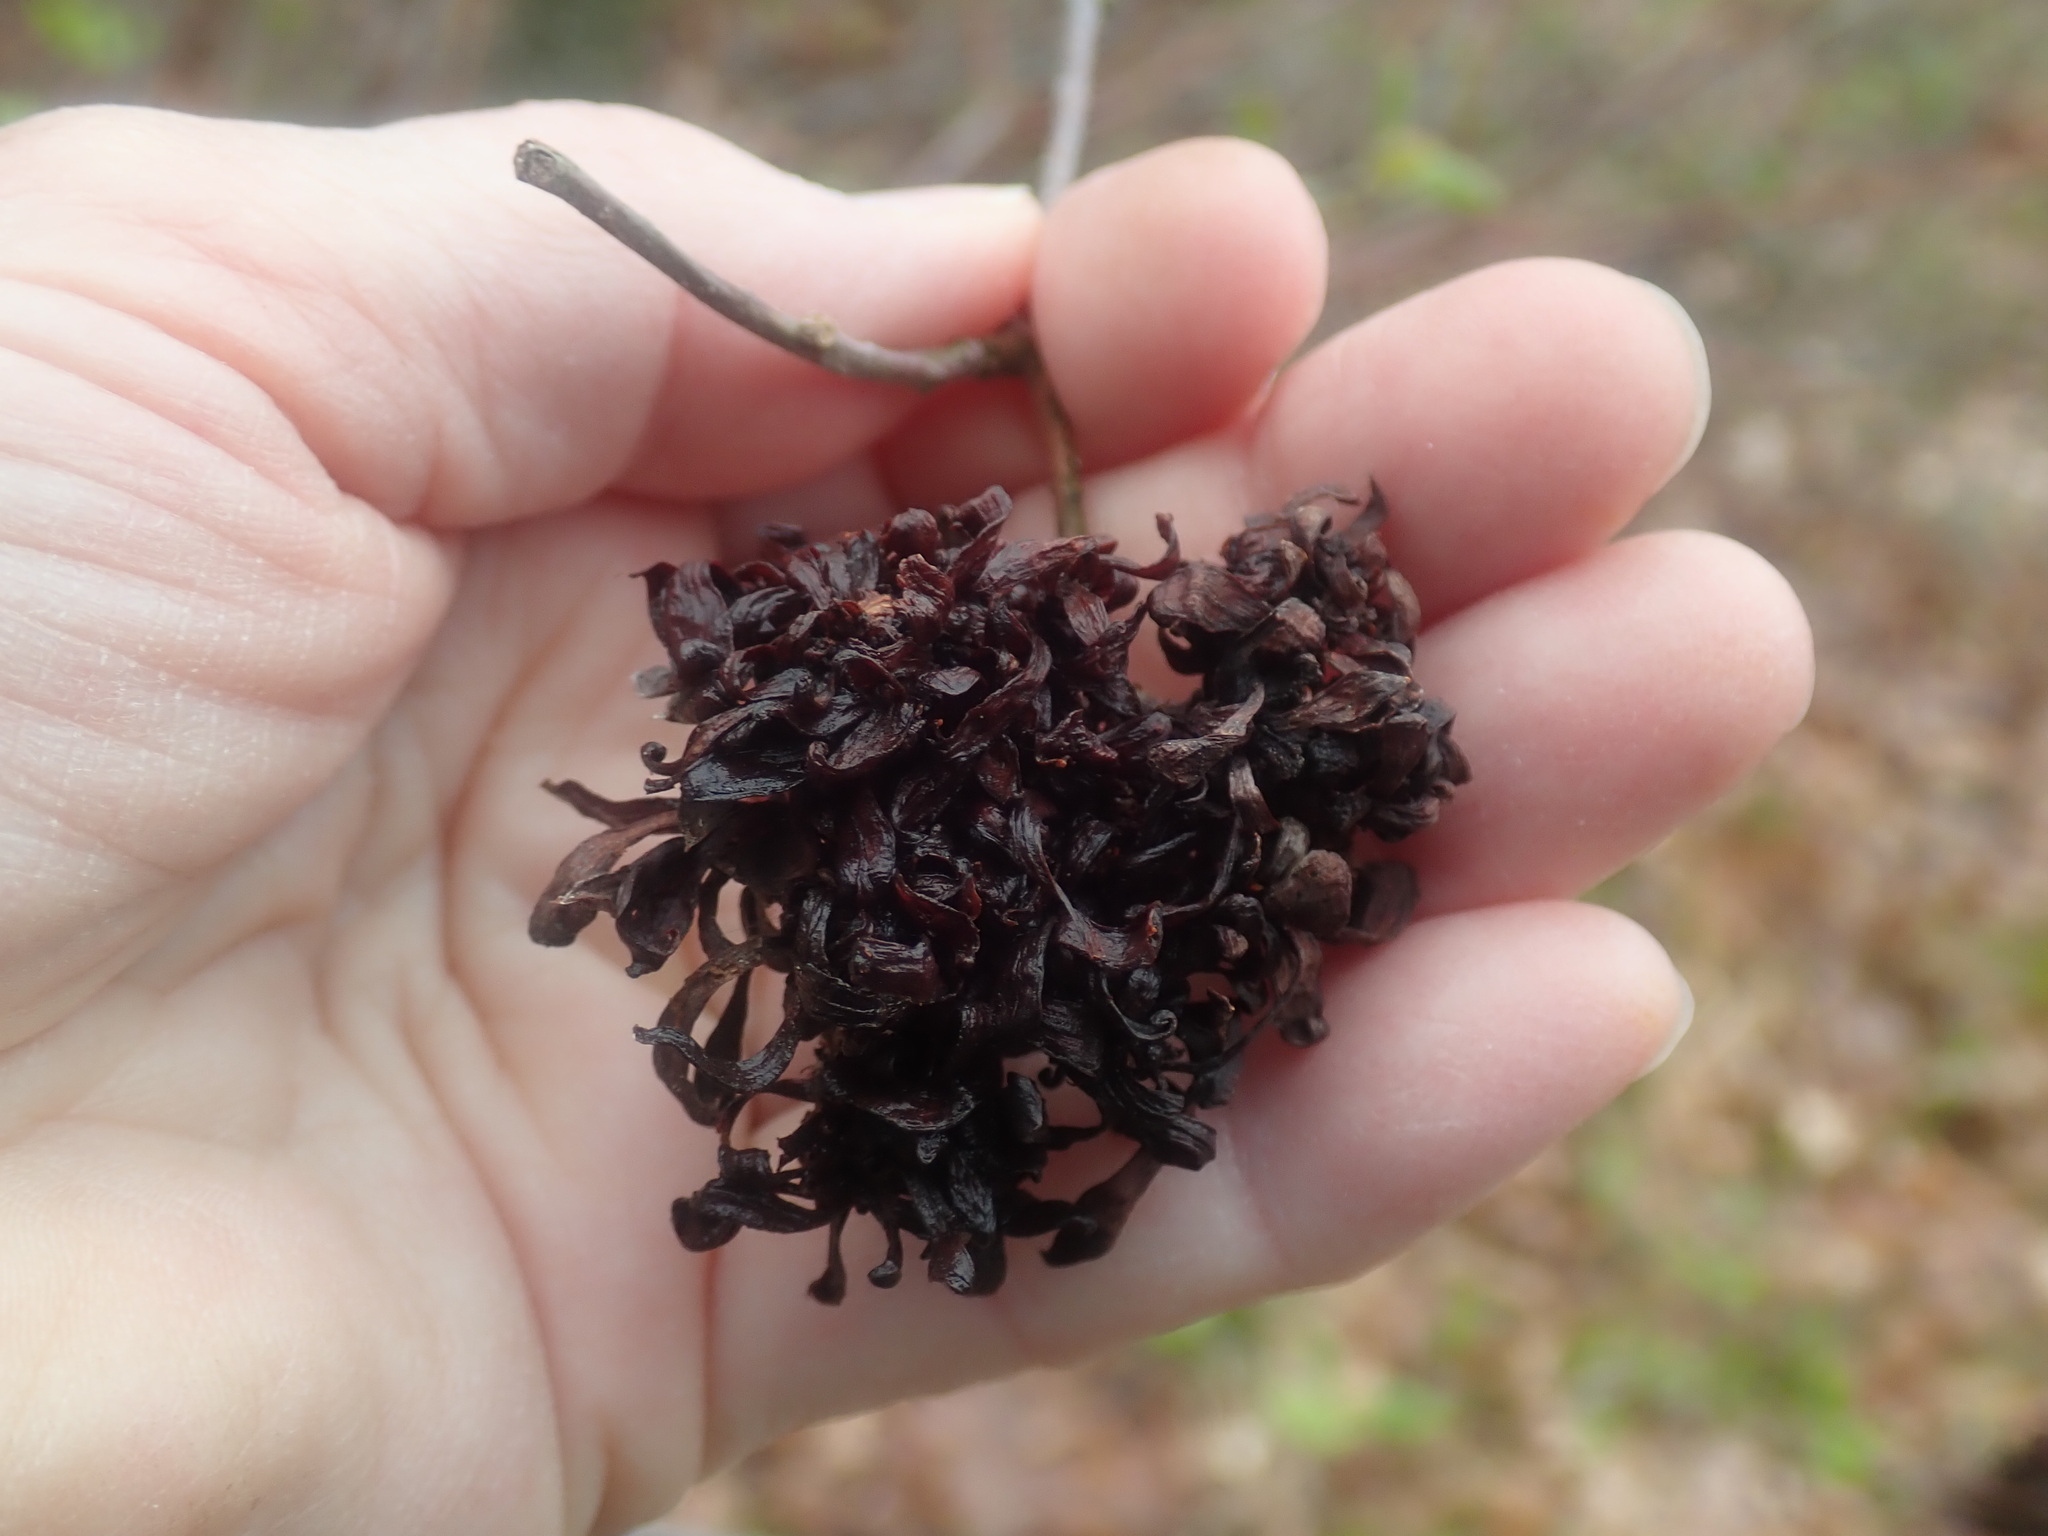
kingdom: Fungi
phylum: Ascomycota
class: Taphrinomycetes
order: Taphrinales
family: Taphrinaceae
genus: Taphrina
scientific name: Taphrina robinsoniana
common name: Eastern american alder tongue gall fungus
